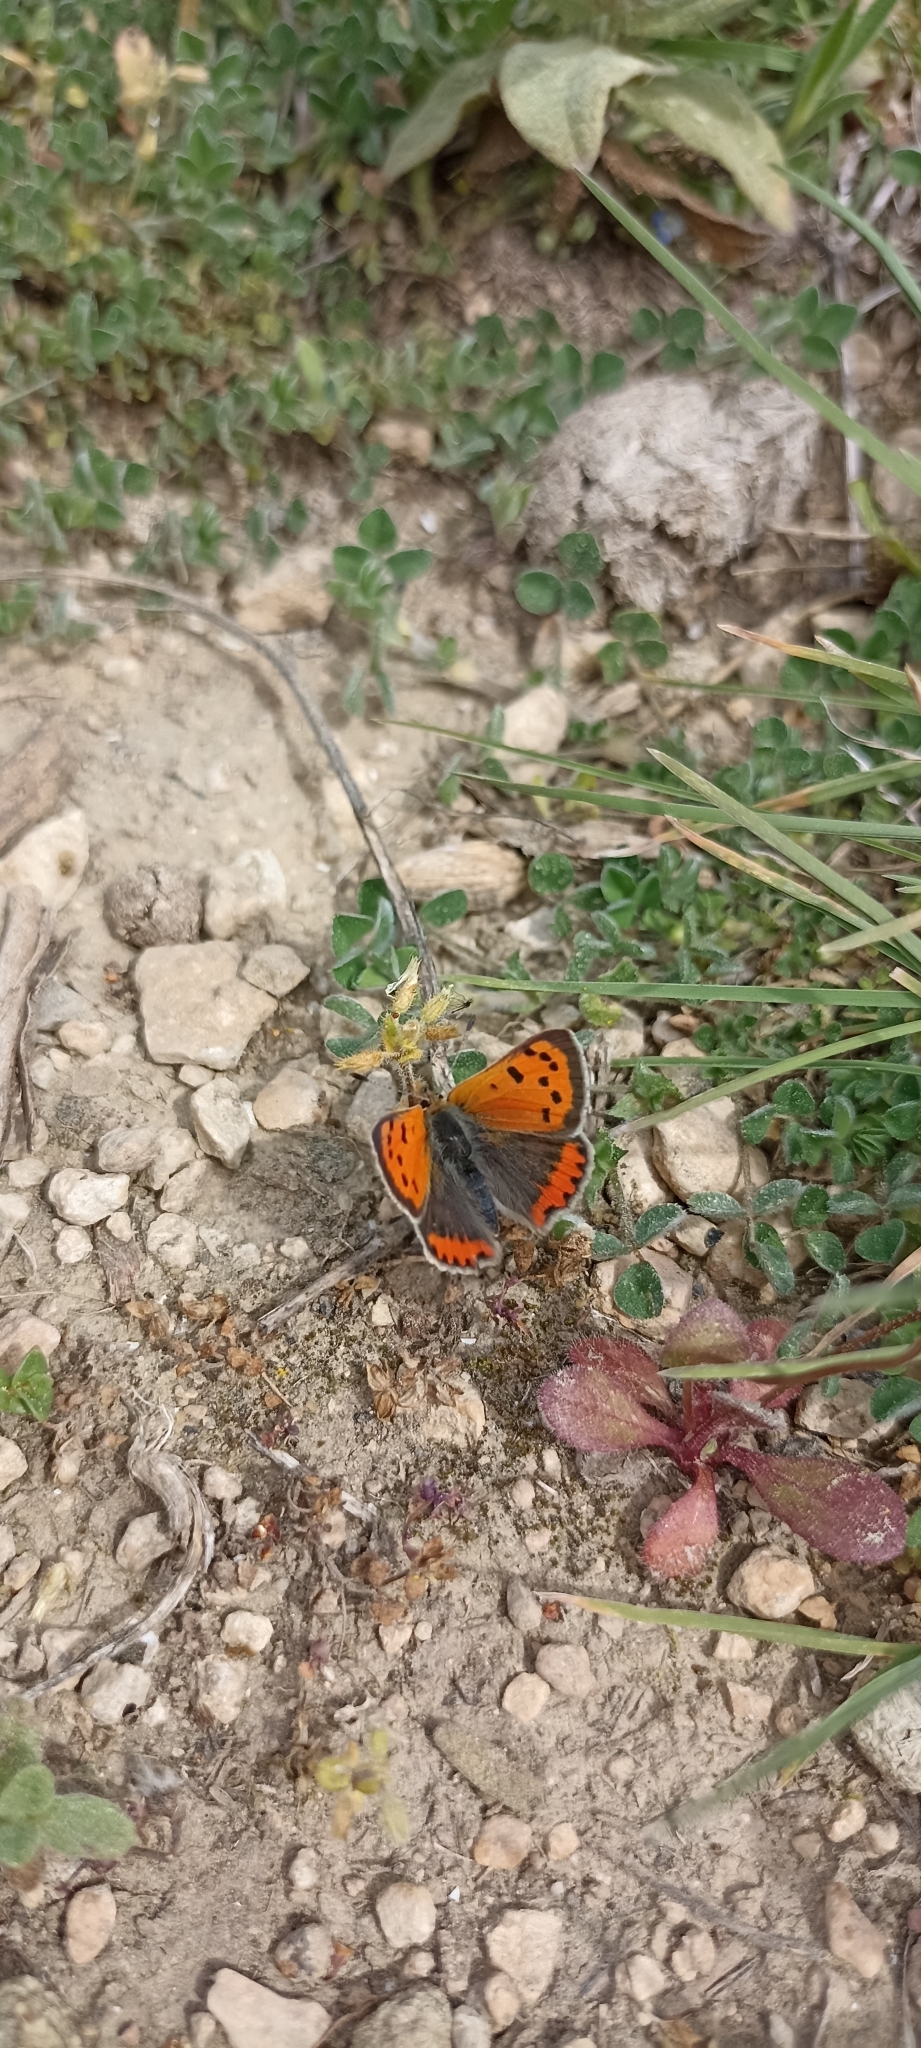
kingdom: Animalia
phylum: Arthropoda
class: Insecta
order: Lepidoptera
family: Lycaenidae
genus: Lycaena
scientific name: Lycaena phlaeas
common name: Small copper
